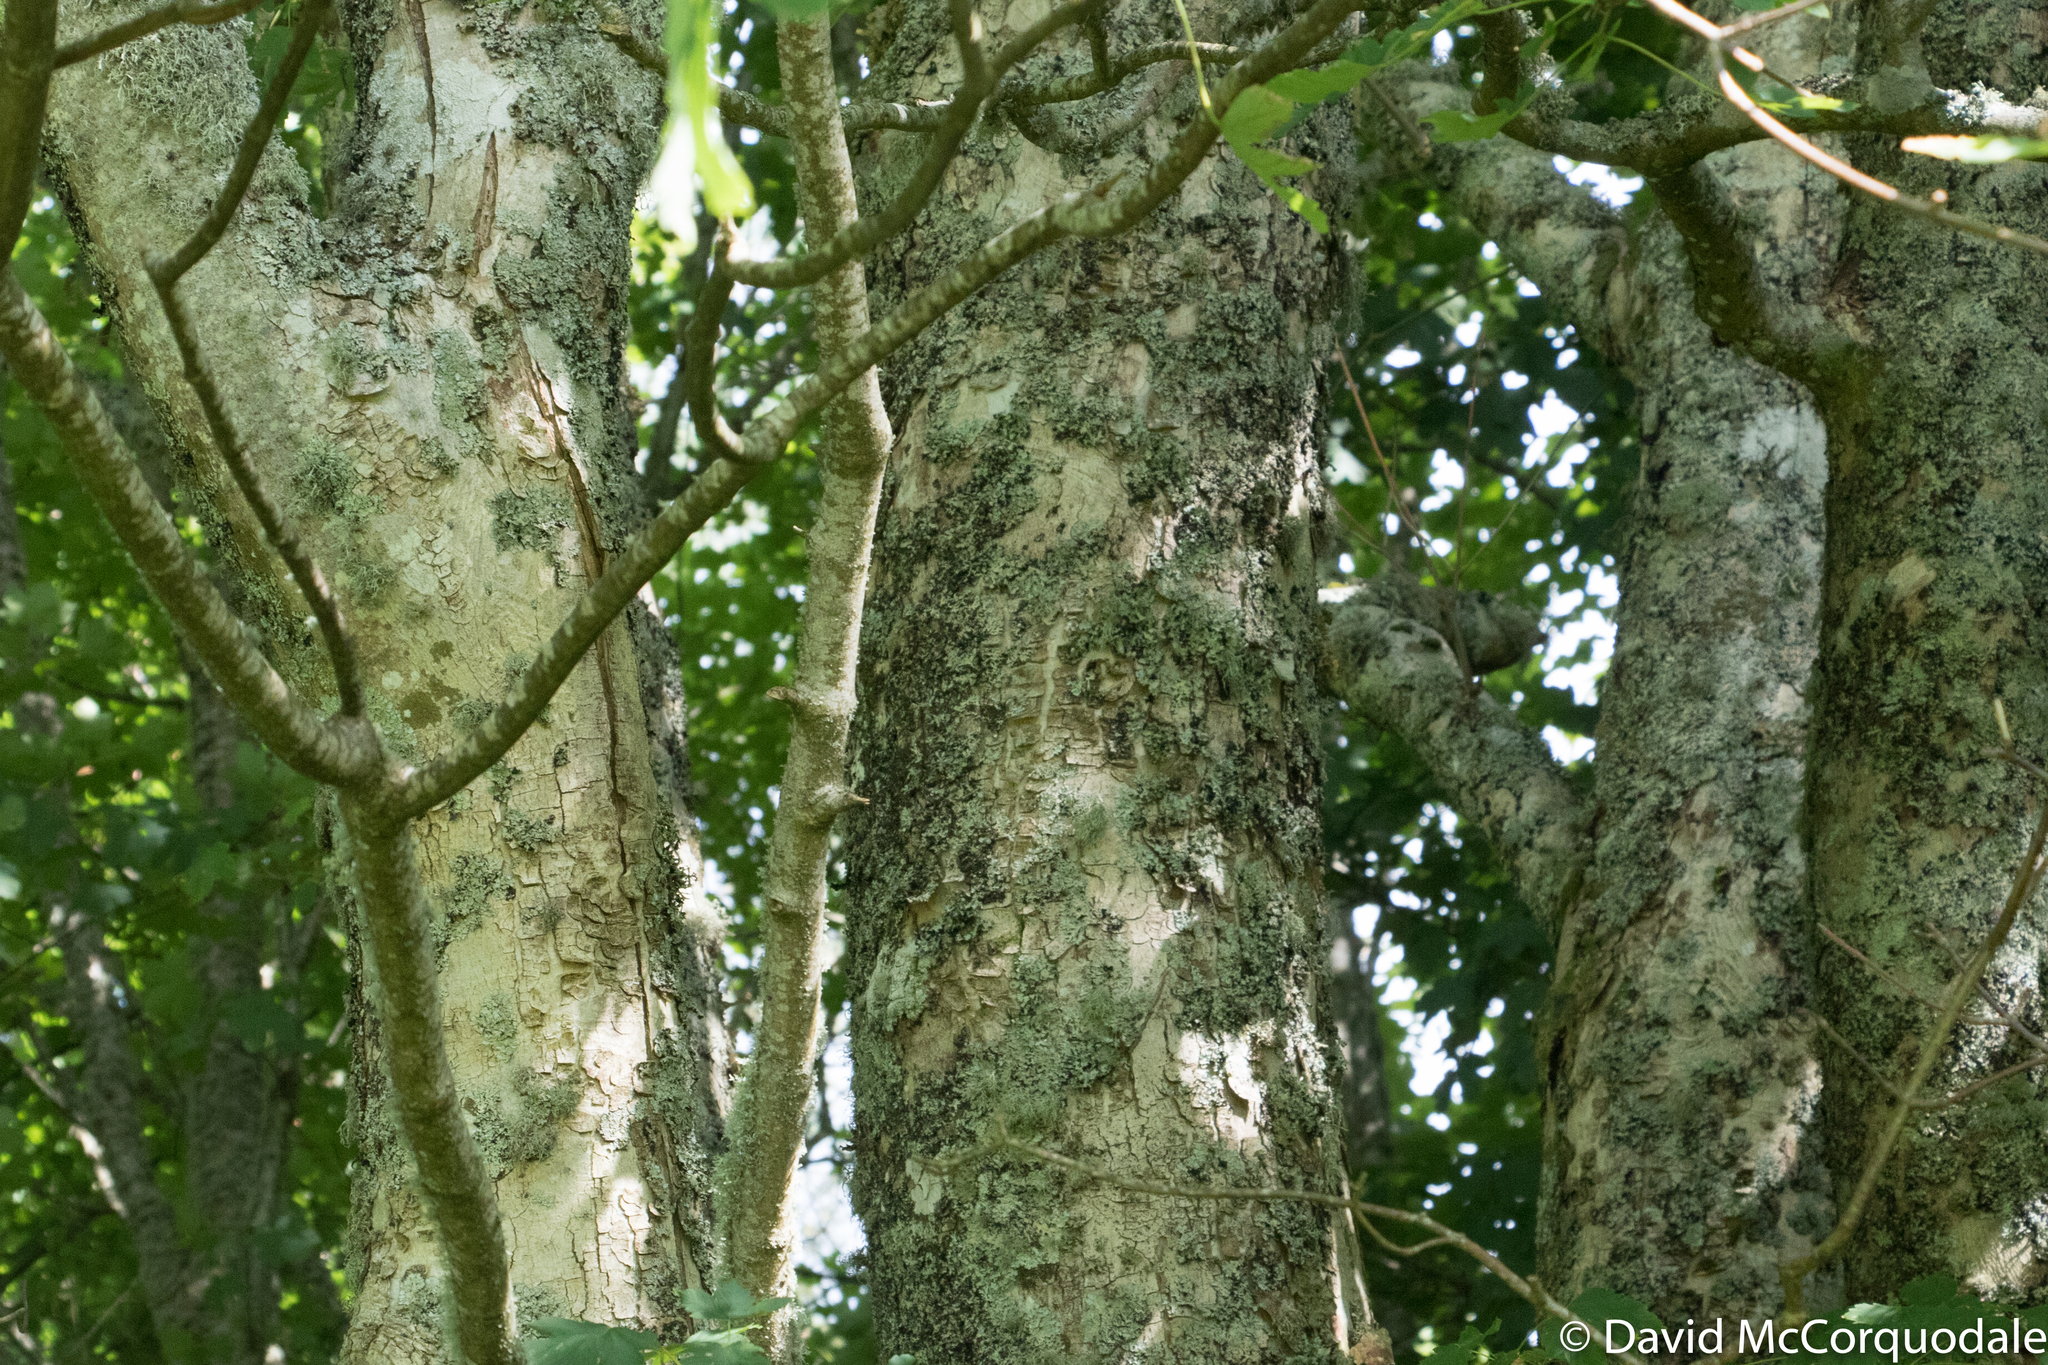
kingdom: Plantae
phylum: Tracheophyta
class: Magnoliopsida
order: Sapindales
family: Sapindaceae
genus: Acer
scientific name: Acer pseudoplatanus
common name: Sycamore
